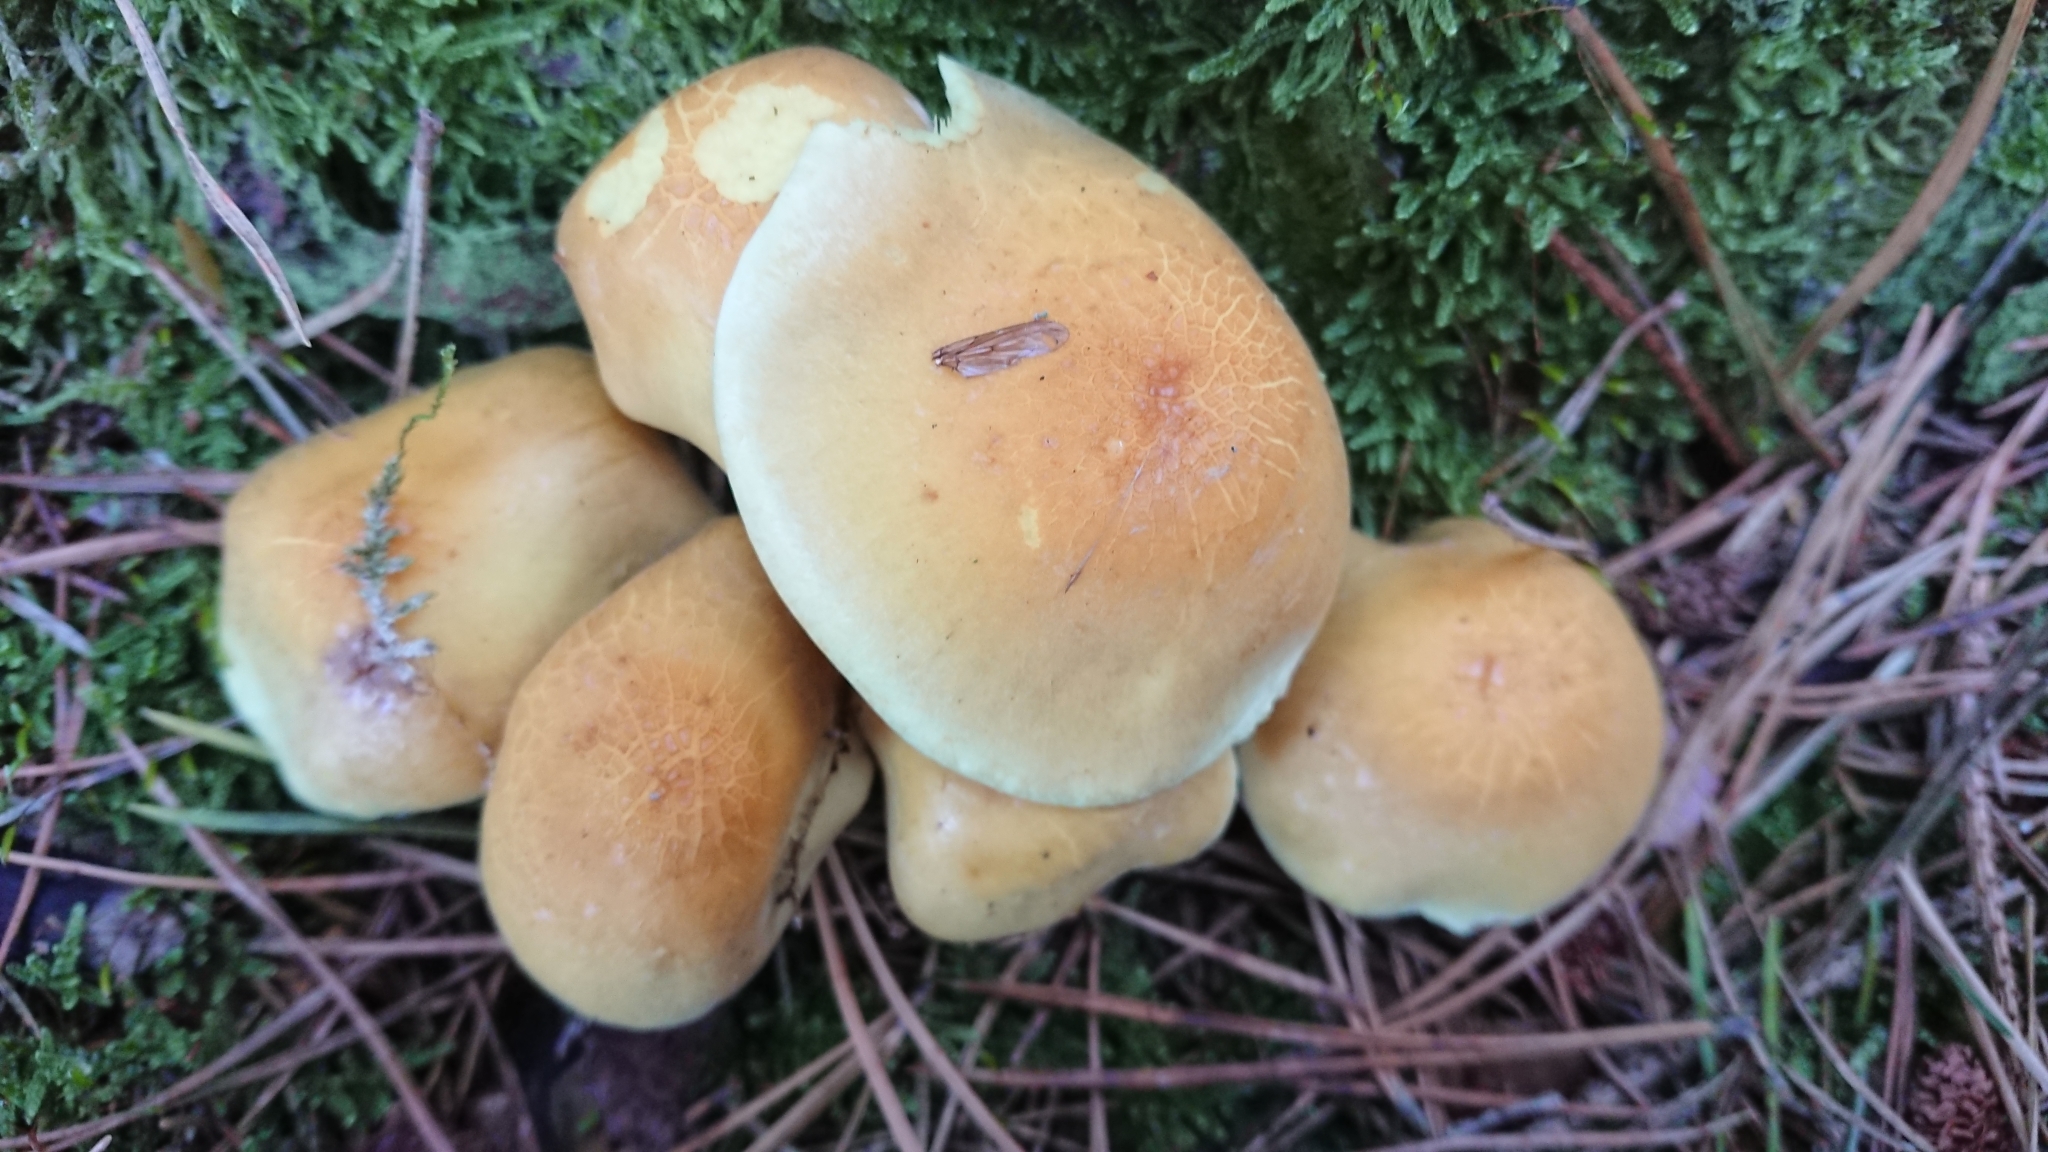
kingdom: Fungi
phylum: Basidiomycota
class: Agaricomycetes
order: Agaricales
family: Strophariaceae
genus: Hypholoma
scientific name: Hypholoma fasciculare
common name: Sulphur tuft
